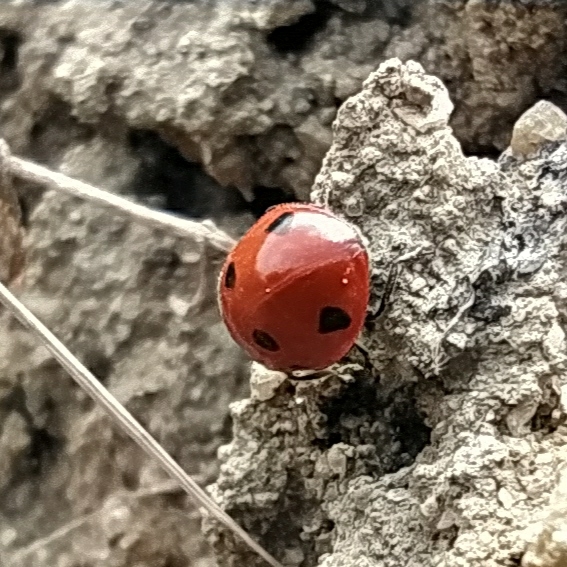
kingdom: Animalia
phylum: Arthropoda
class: Insecta
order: Coleoptera
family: Coccinellidae
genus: Coccinella
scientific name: Coccinella septempunctata
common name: Sevenspotted lady beetle
